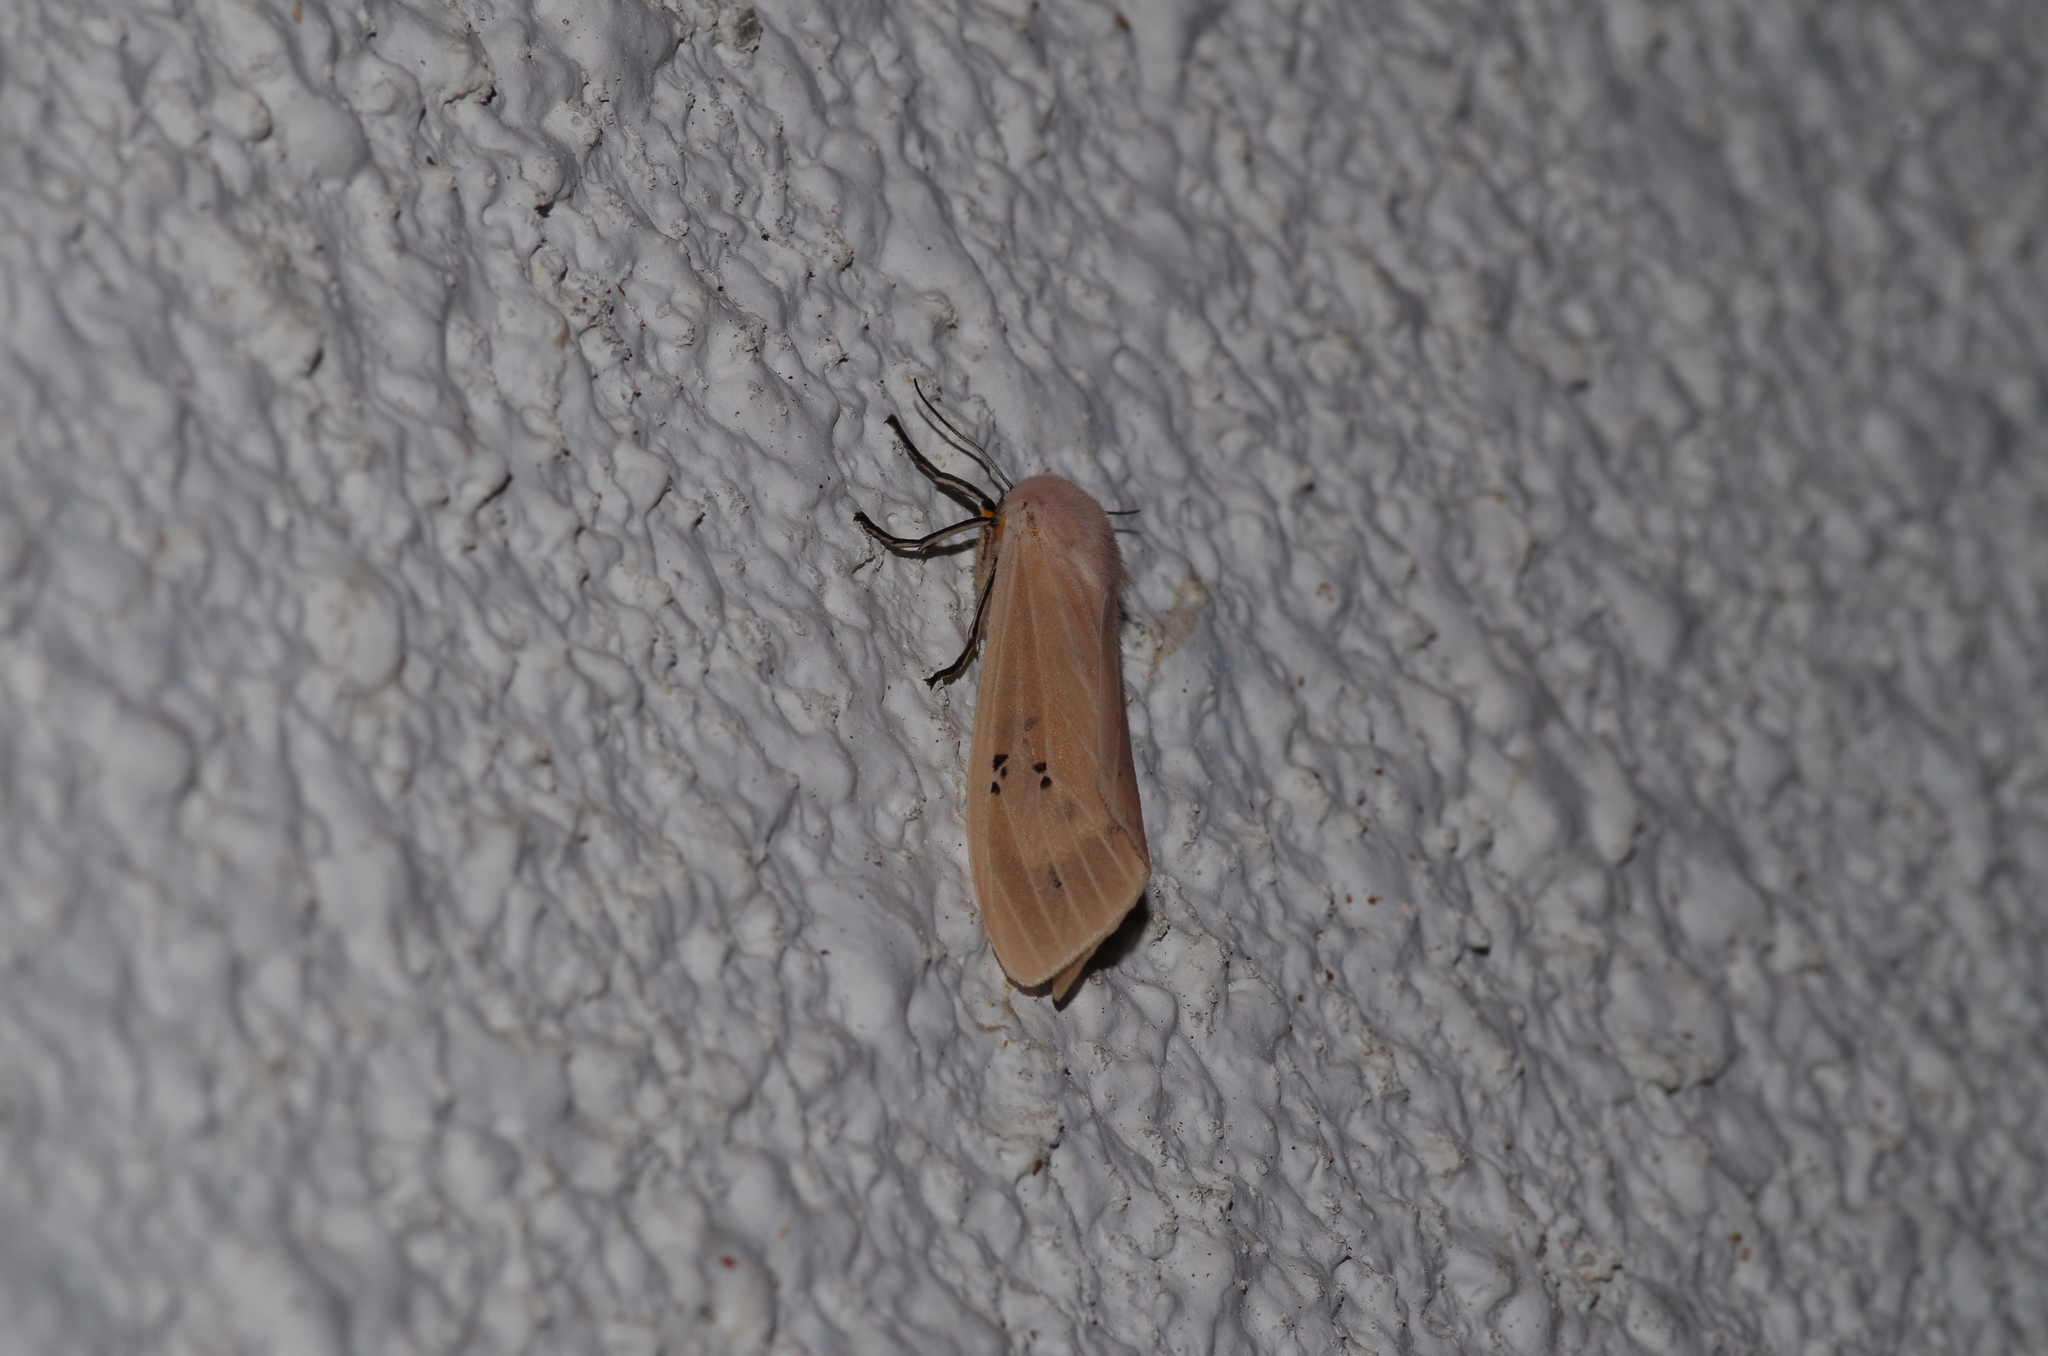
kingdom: Animalia
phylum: Arthropoda
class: Insecta
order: Lepidoptera
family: Erebidae
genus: Creatonotos
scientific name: Creatonotos transiens
